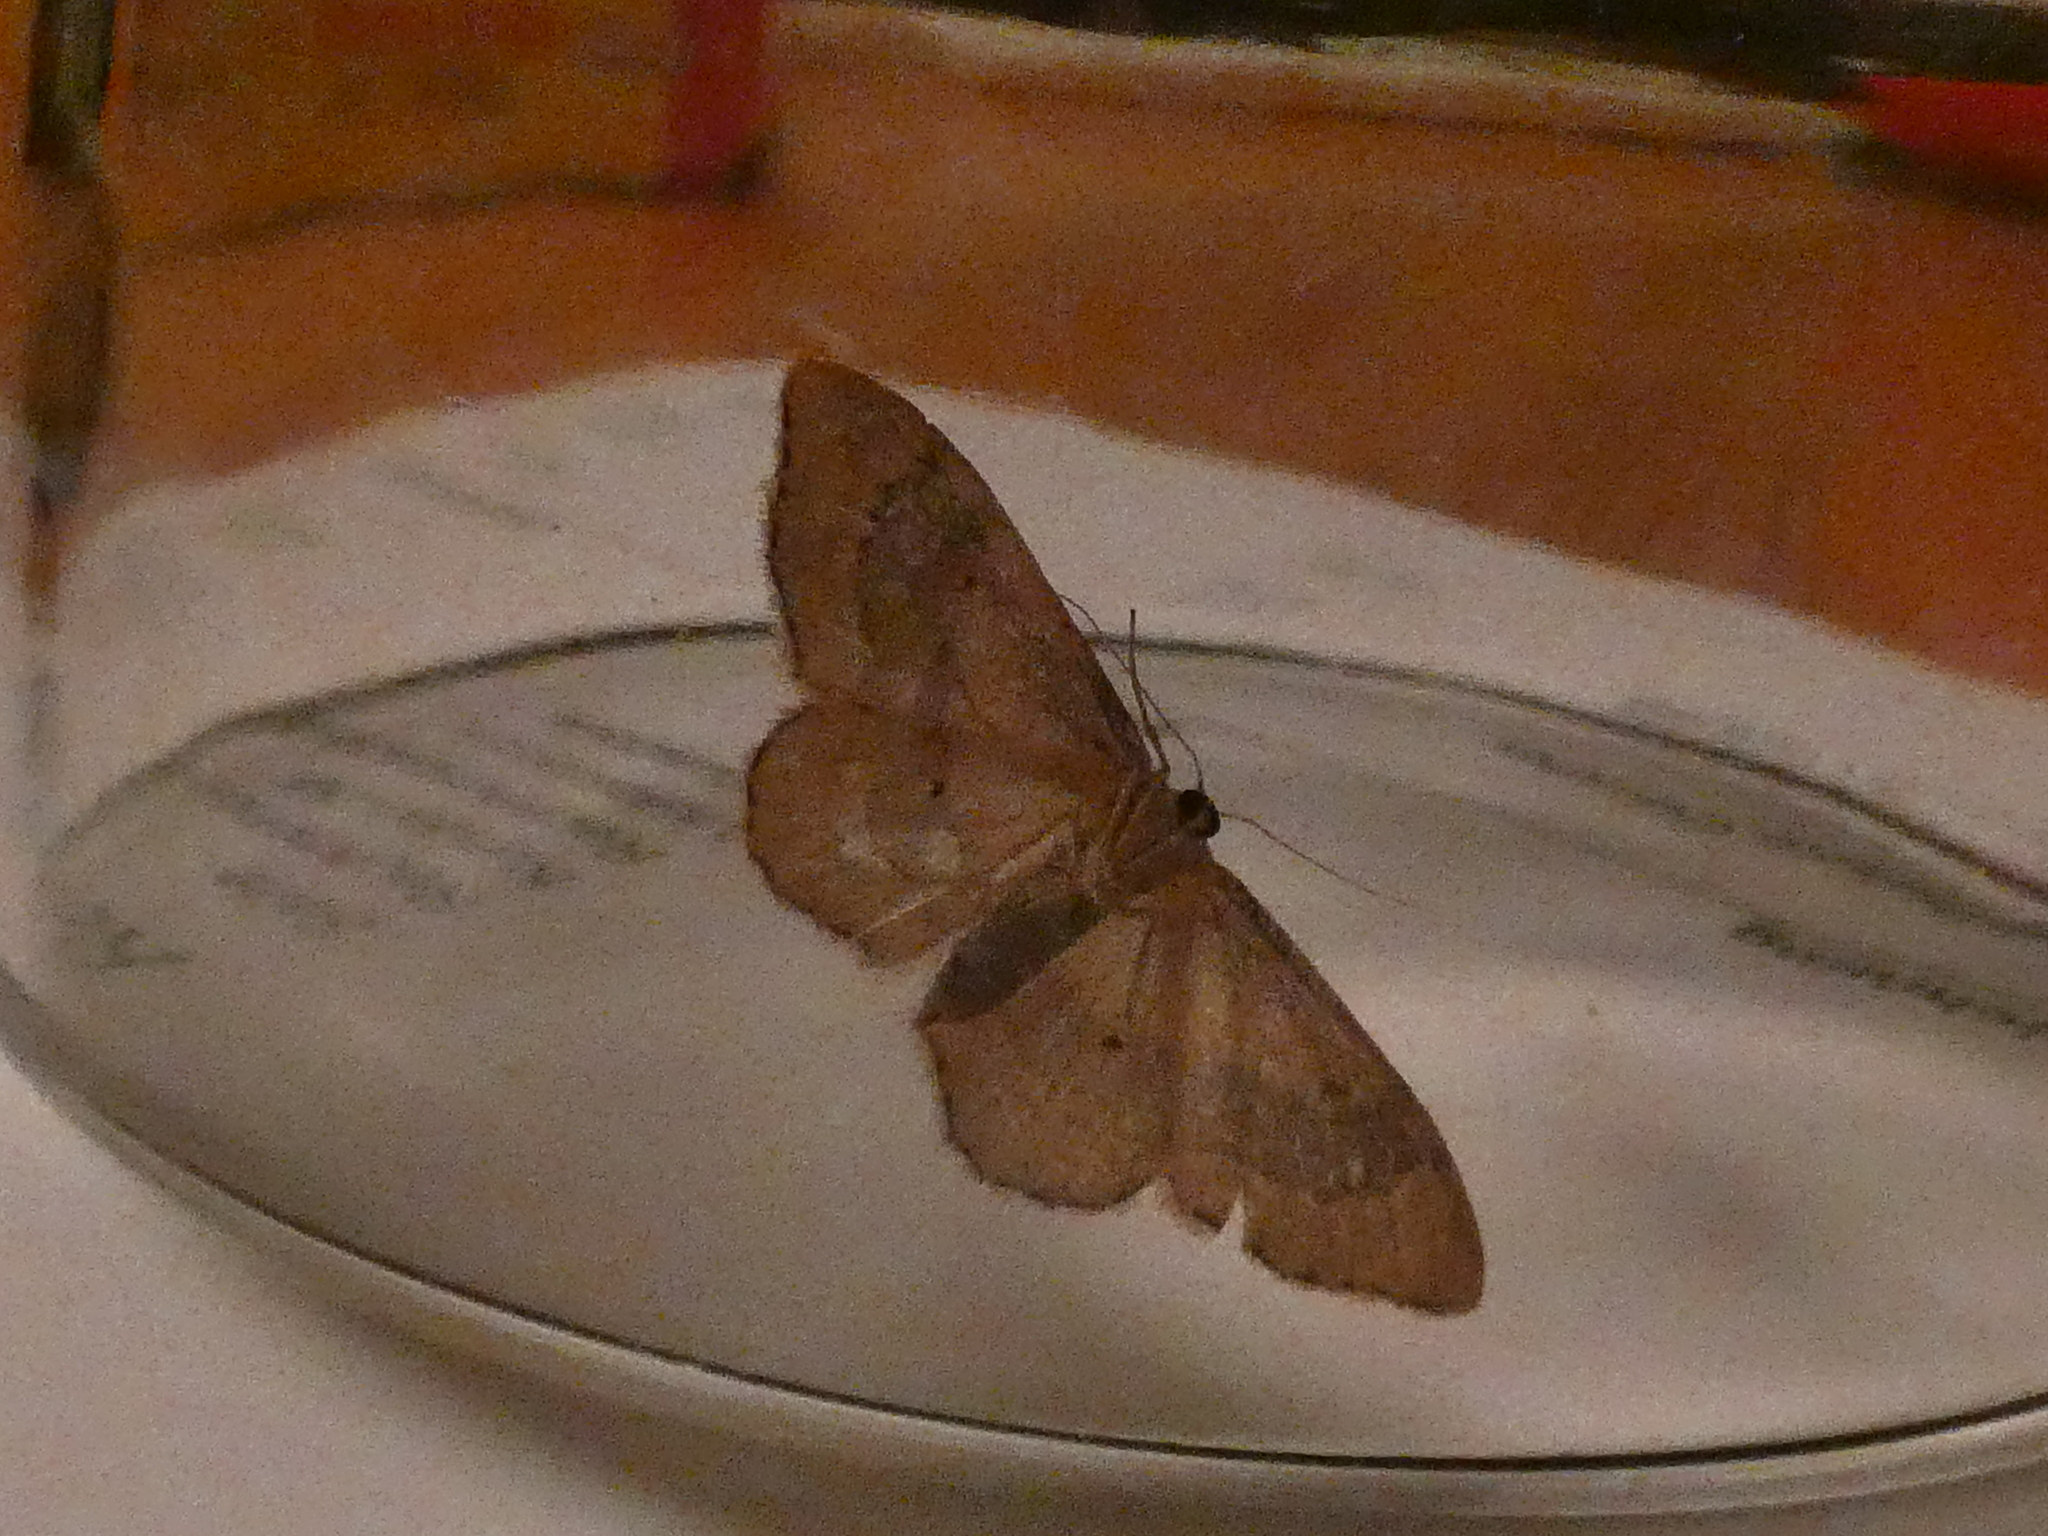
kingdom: Animalia
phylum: Arthropoda
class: Insecta
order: Lepidoptera
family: Geometridae
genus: Idaea
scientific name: Idaea aversata
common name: Riband wave
